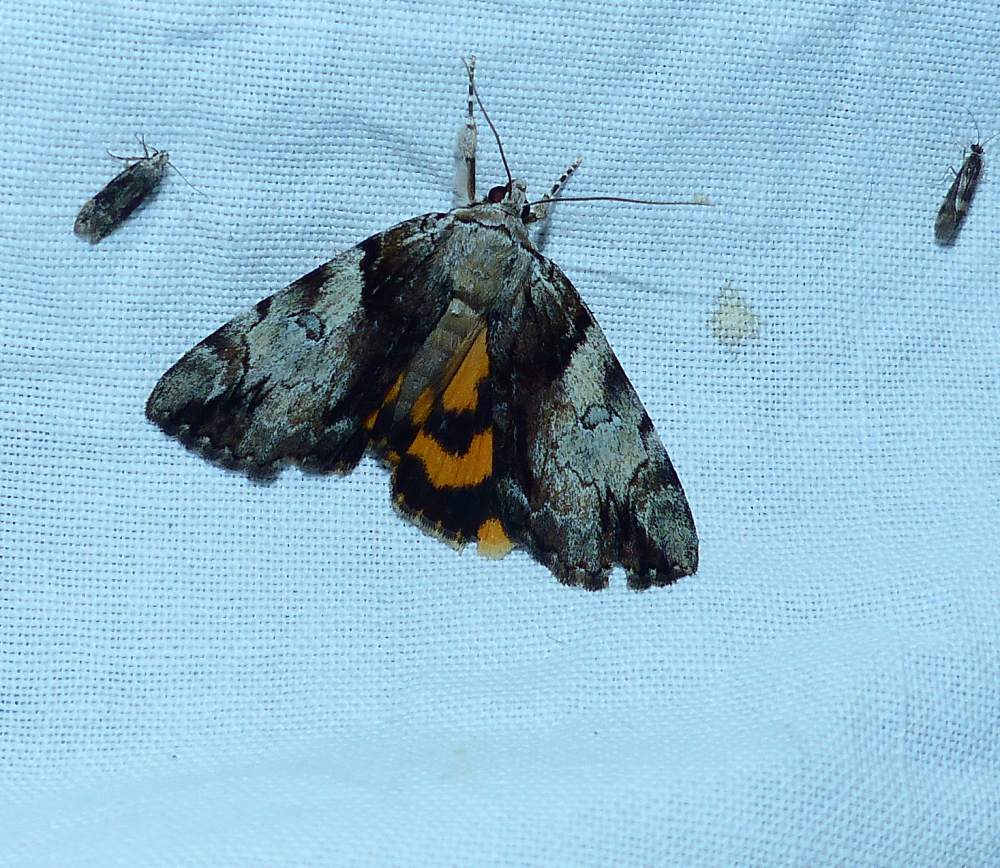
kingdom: Animalia
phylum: Arthropoda
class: Insecta
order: Lepidoptera
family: Erebidae
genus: Catocala
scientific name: Catocala crataegi
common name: Hawthorn underwing moth
